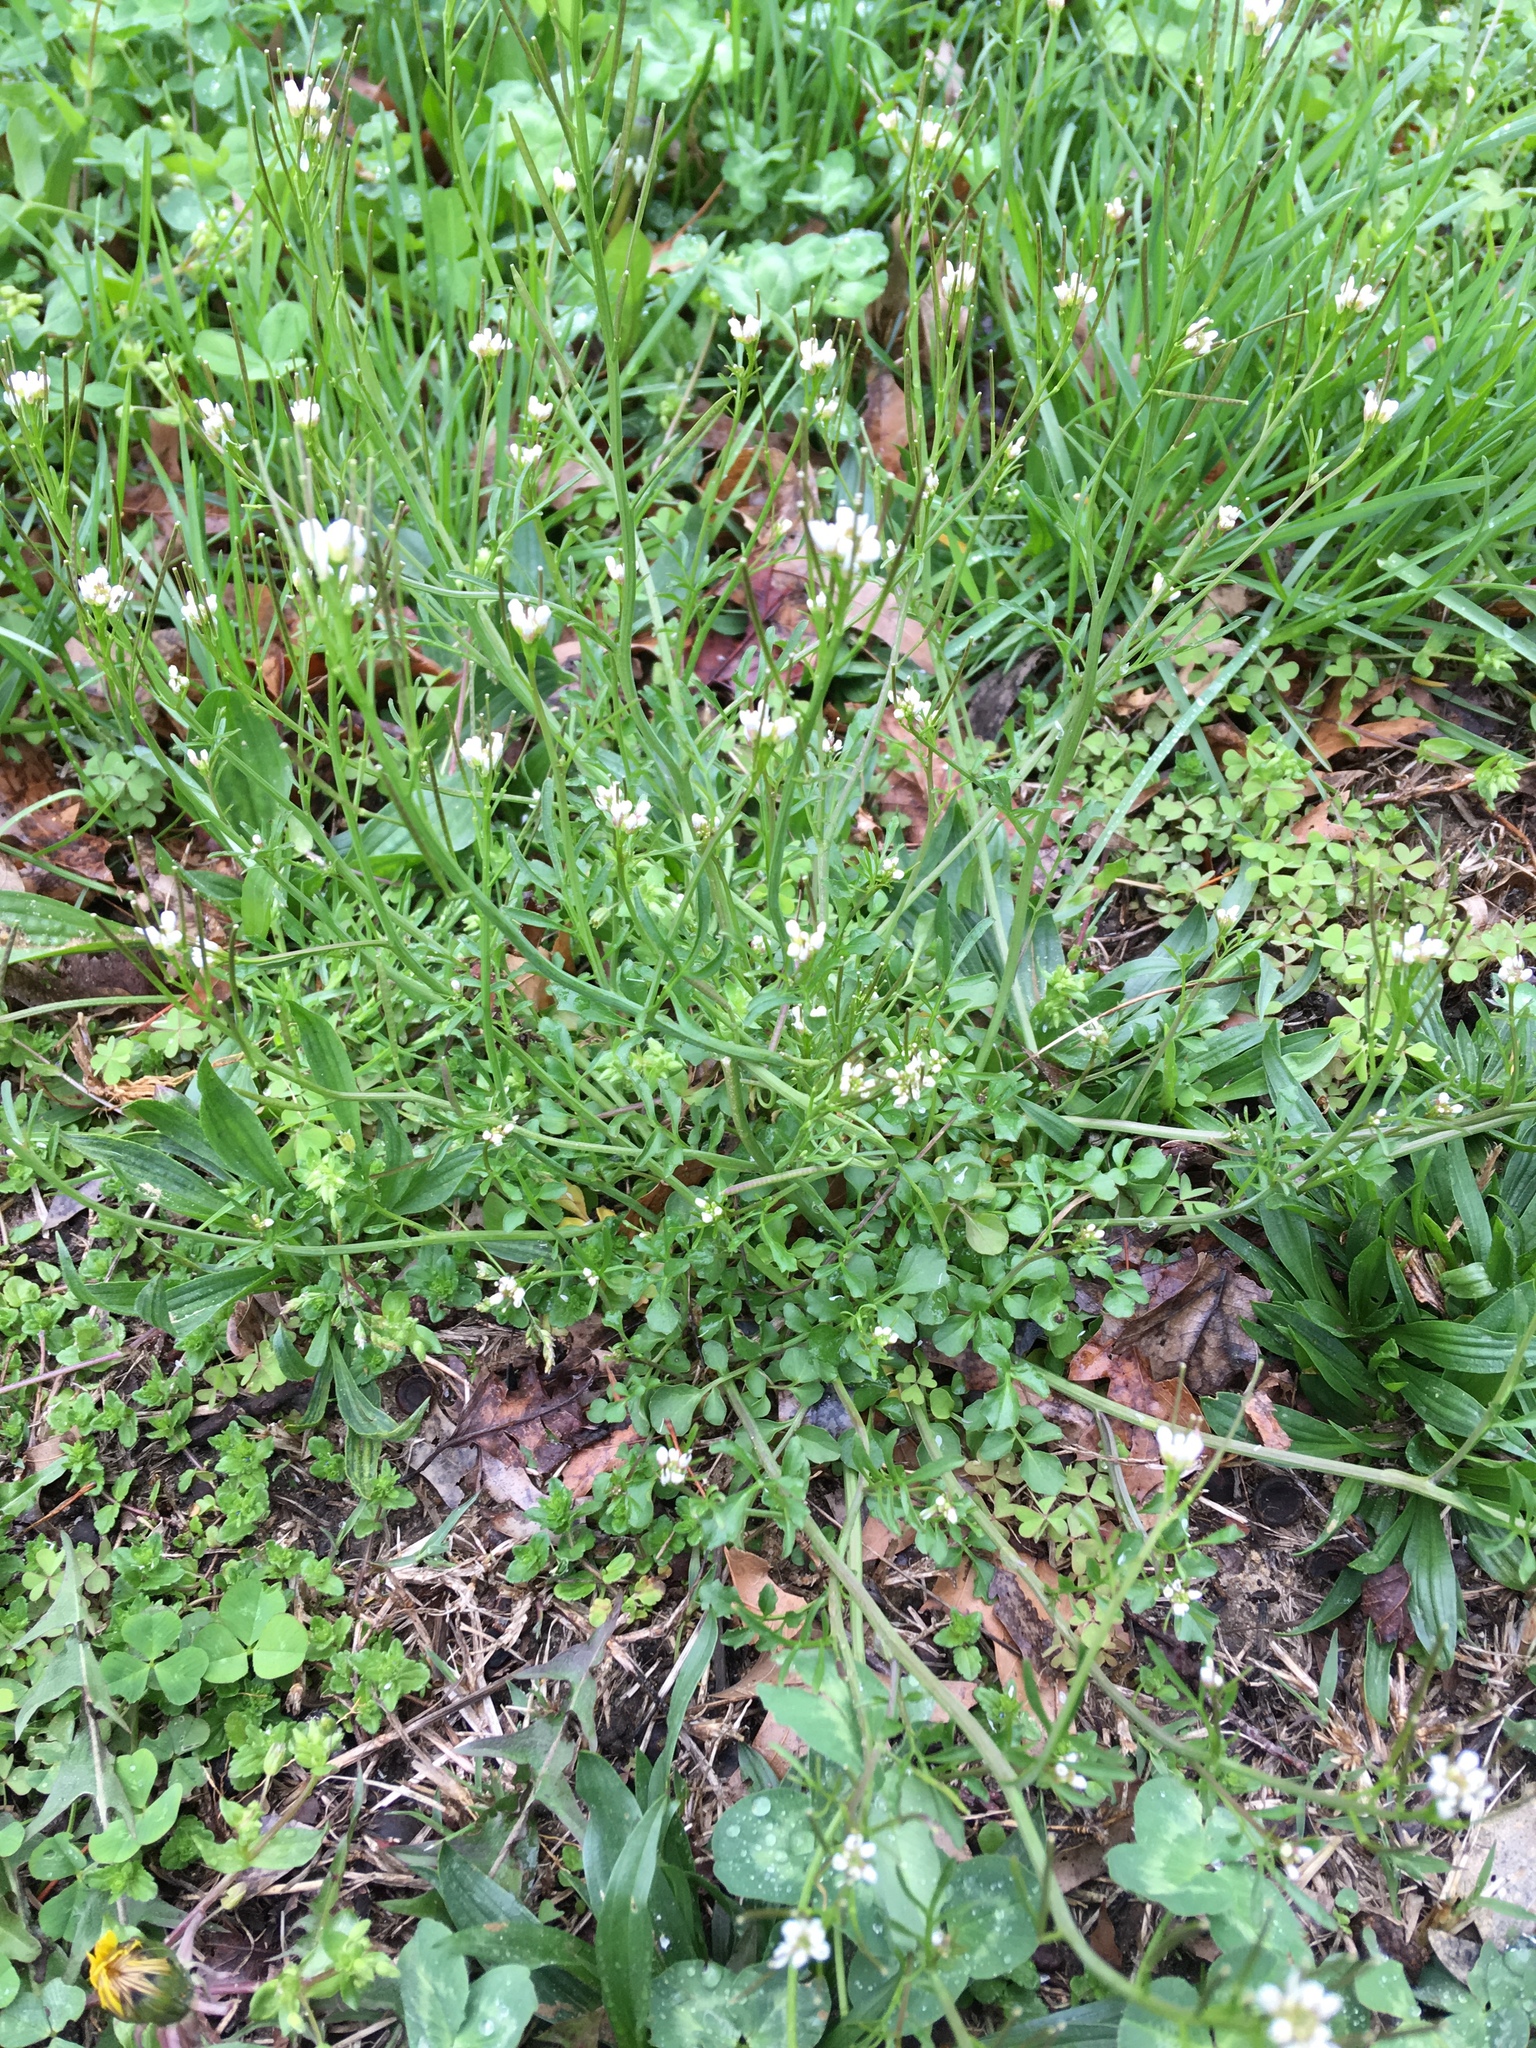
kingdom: Plantae
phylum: Tracheophyta
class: Magnoliopsida
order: Brassicales
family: Brassicaceae
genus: Cardamine
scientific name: Cardamine hirsuta
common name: Hairy bittercress
